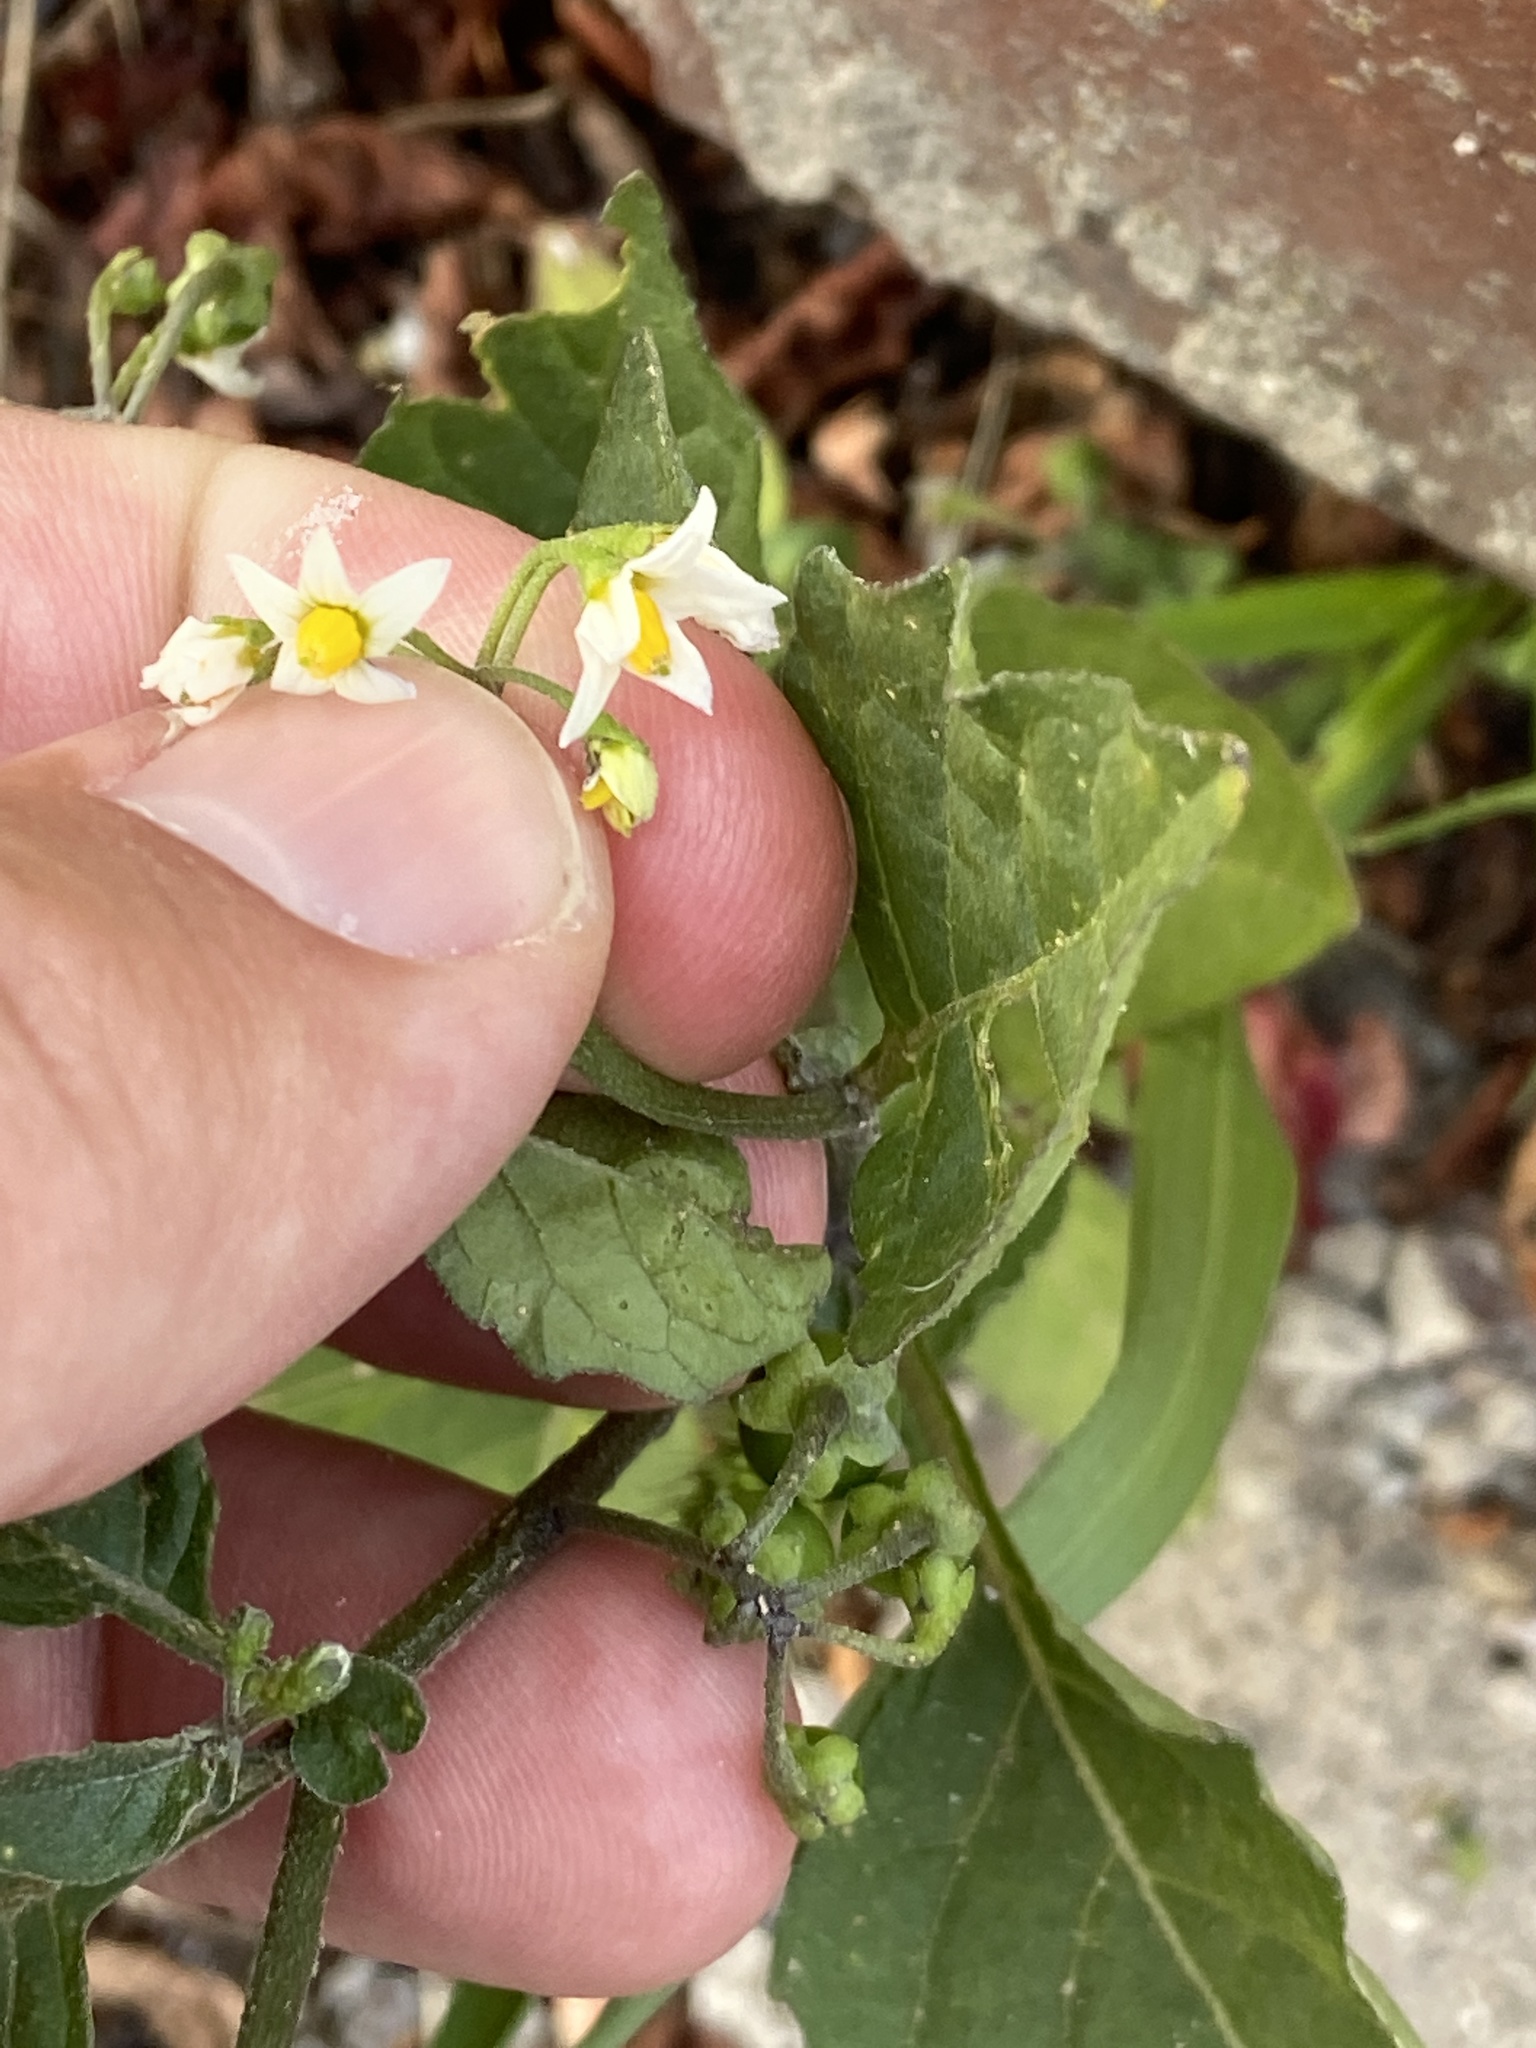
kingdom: Plantae
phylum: Tracheophyta
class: Magnoliopsida
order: Solanales
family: Solanaceae
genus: Solanum
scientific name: Solanum nigrum
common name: Black nightshade
